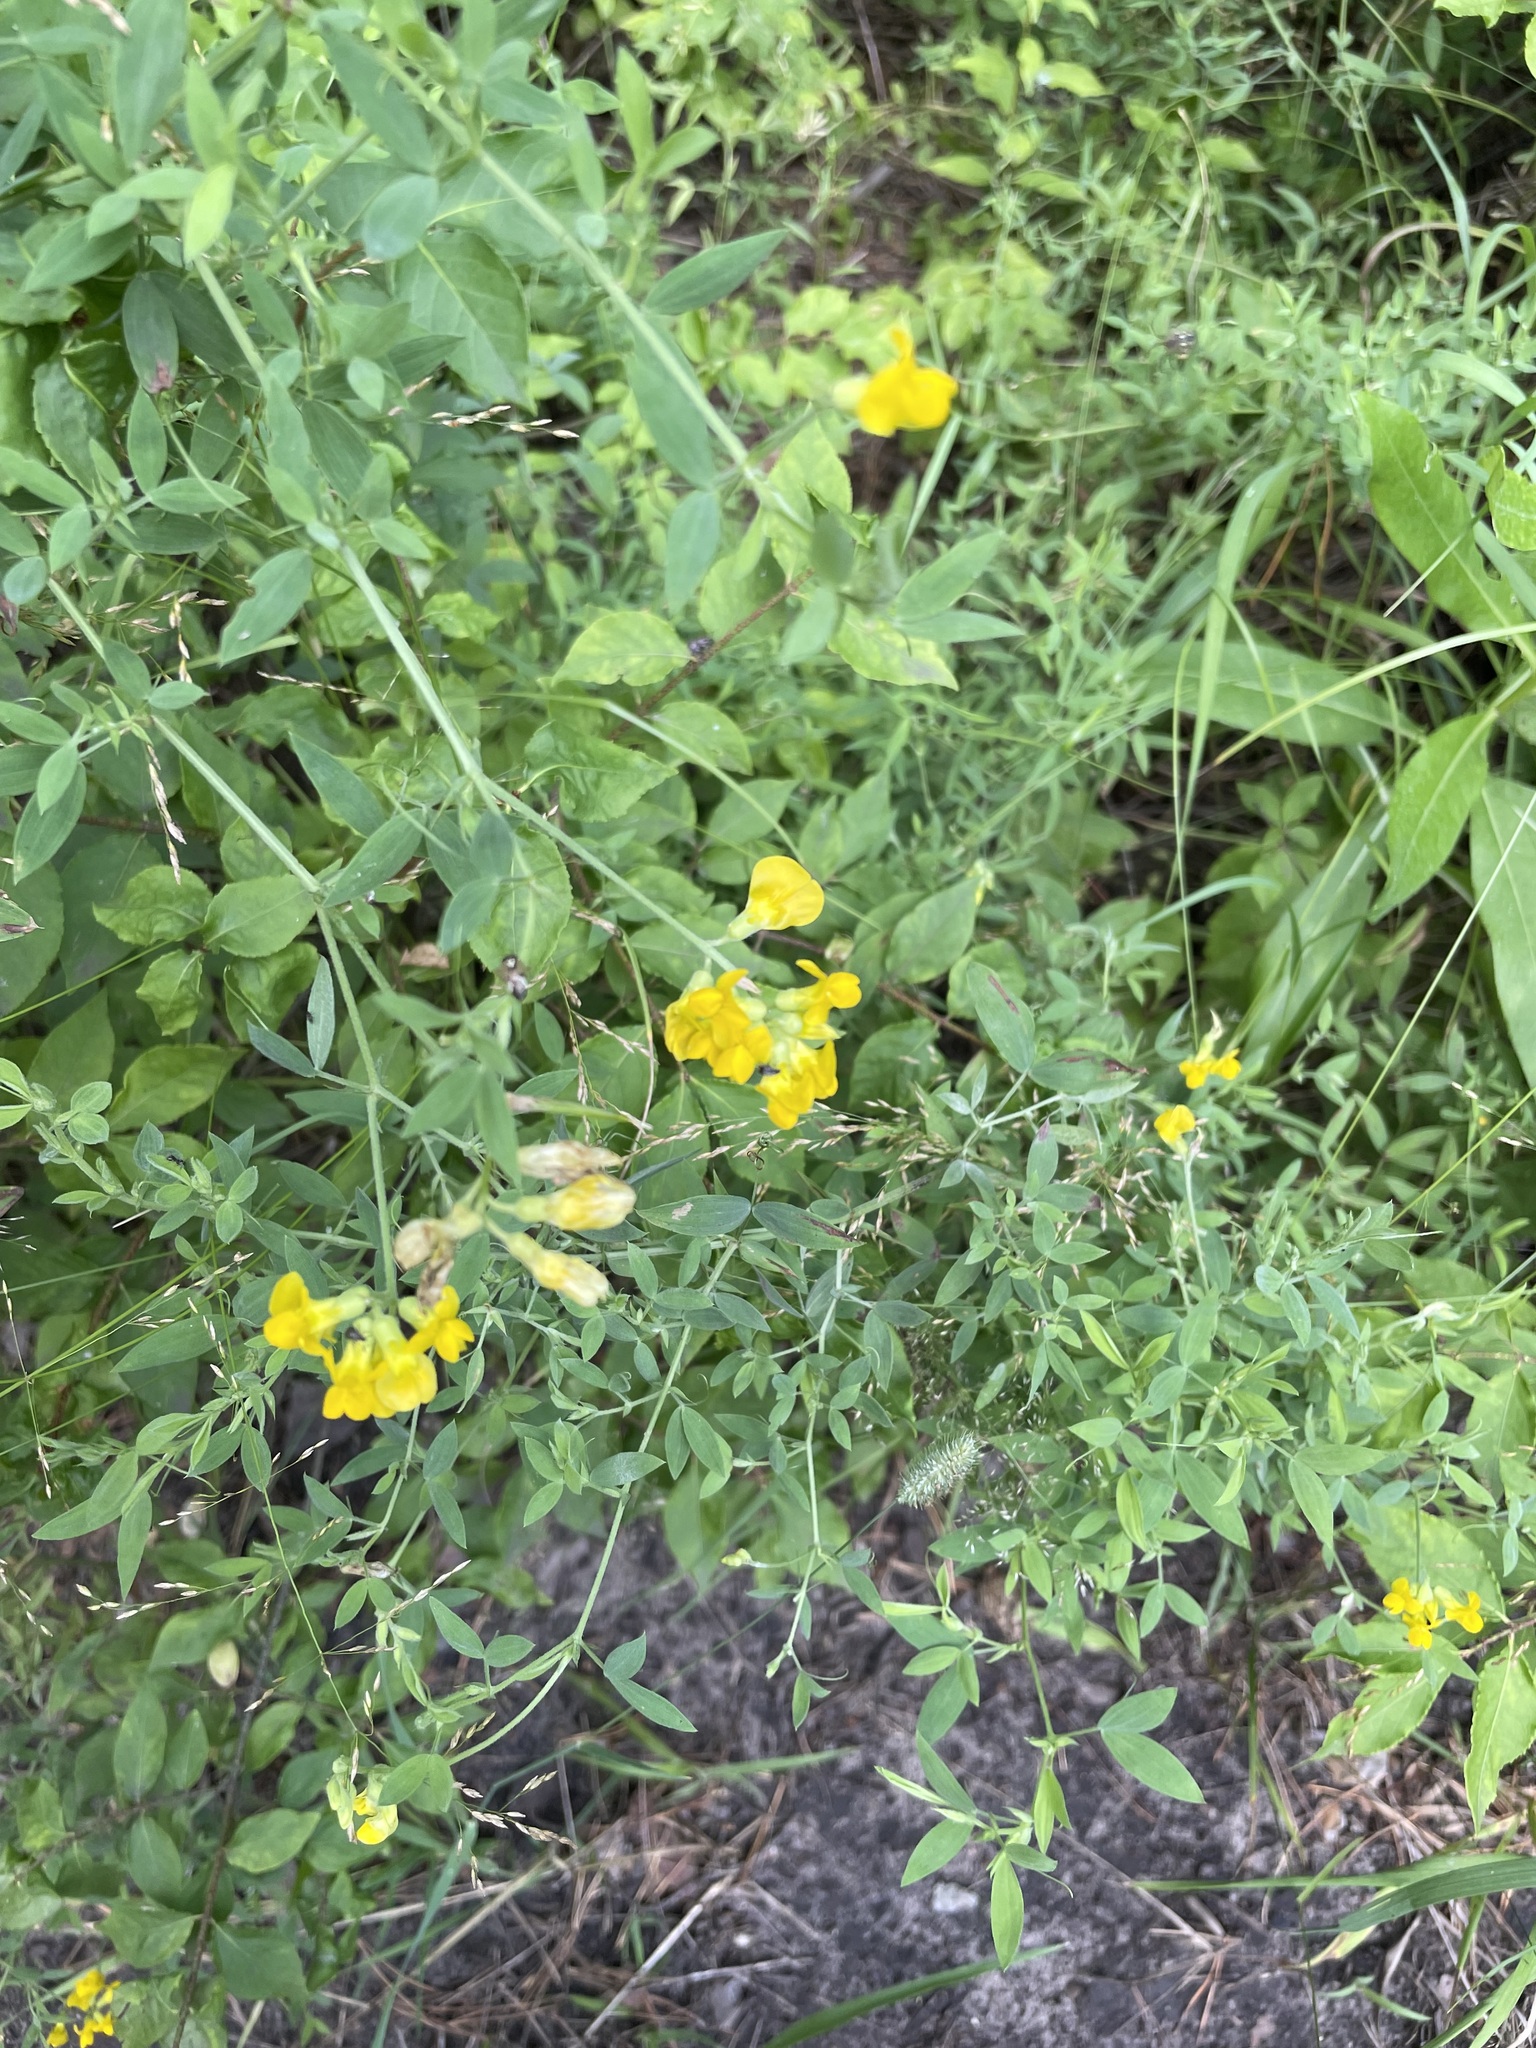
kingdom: Plantae
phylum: Tracheophyta
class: Magnoliopsida
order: Fabales
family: Fabaceae
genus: Lathyrus
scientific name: Lathyrus pratensis
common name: Meadow vetchling
